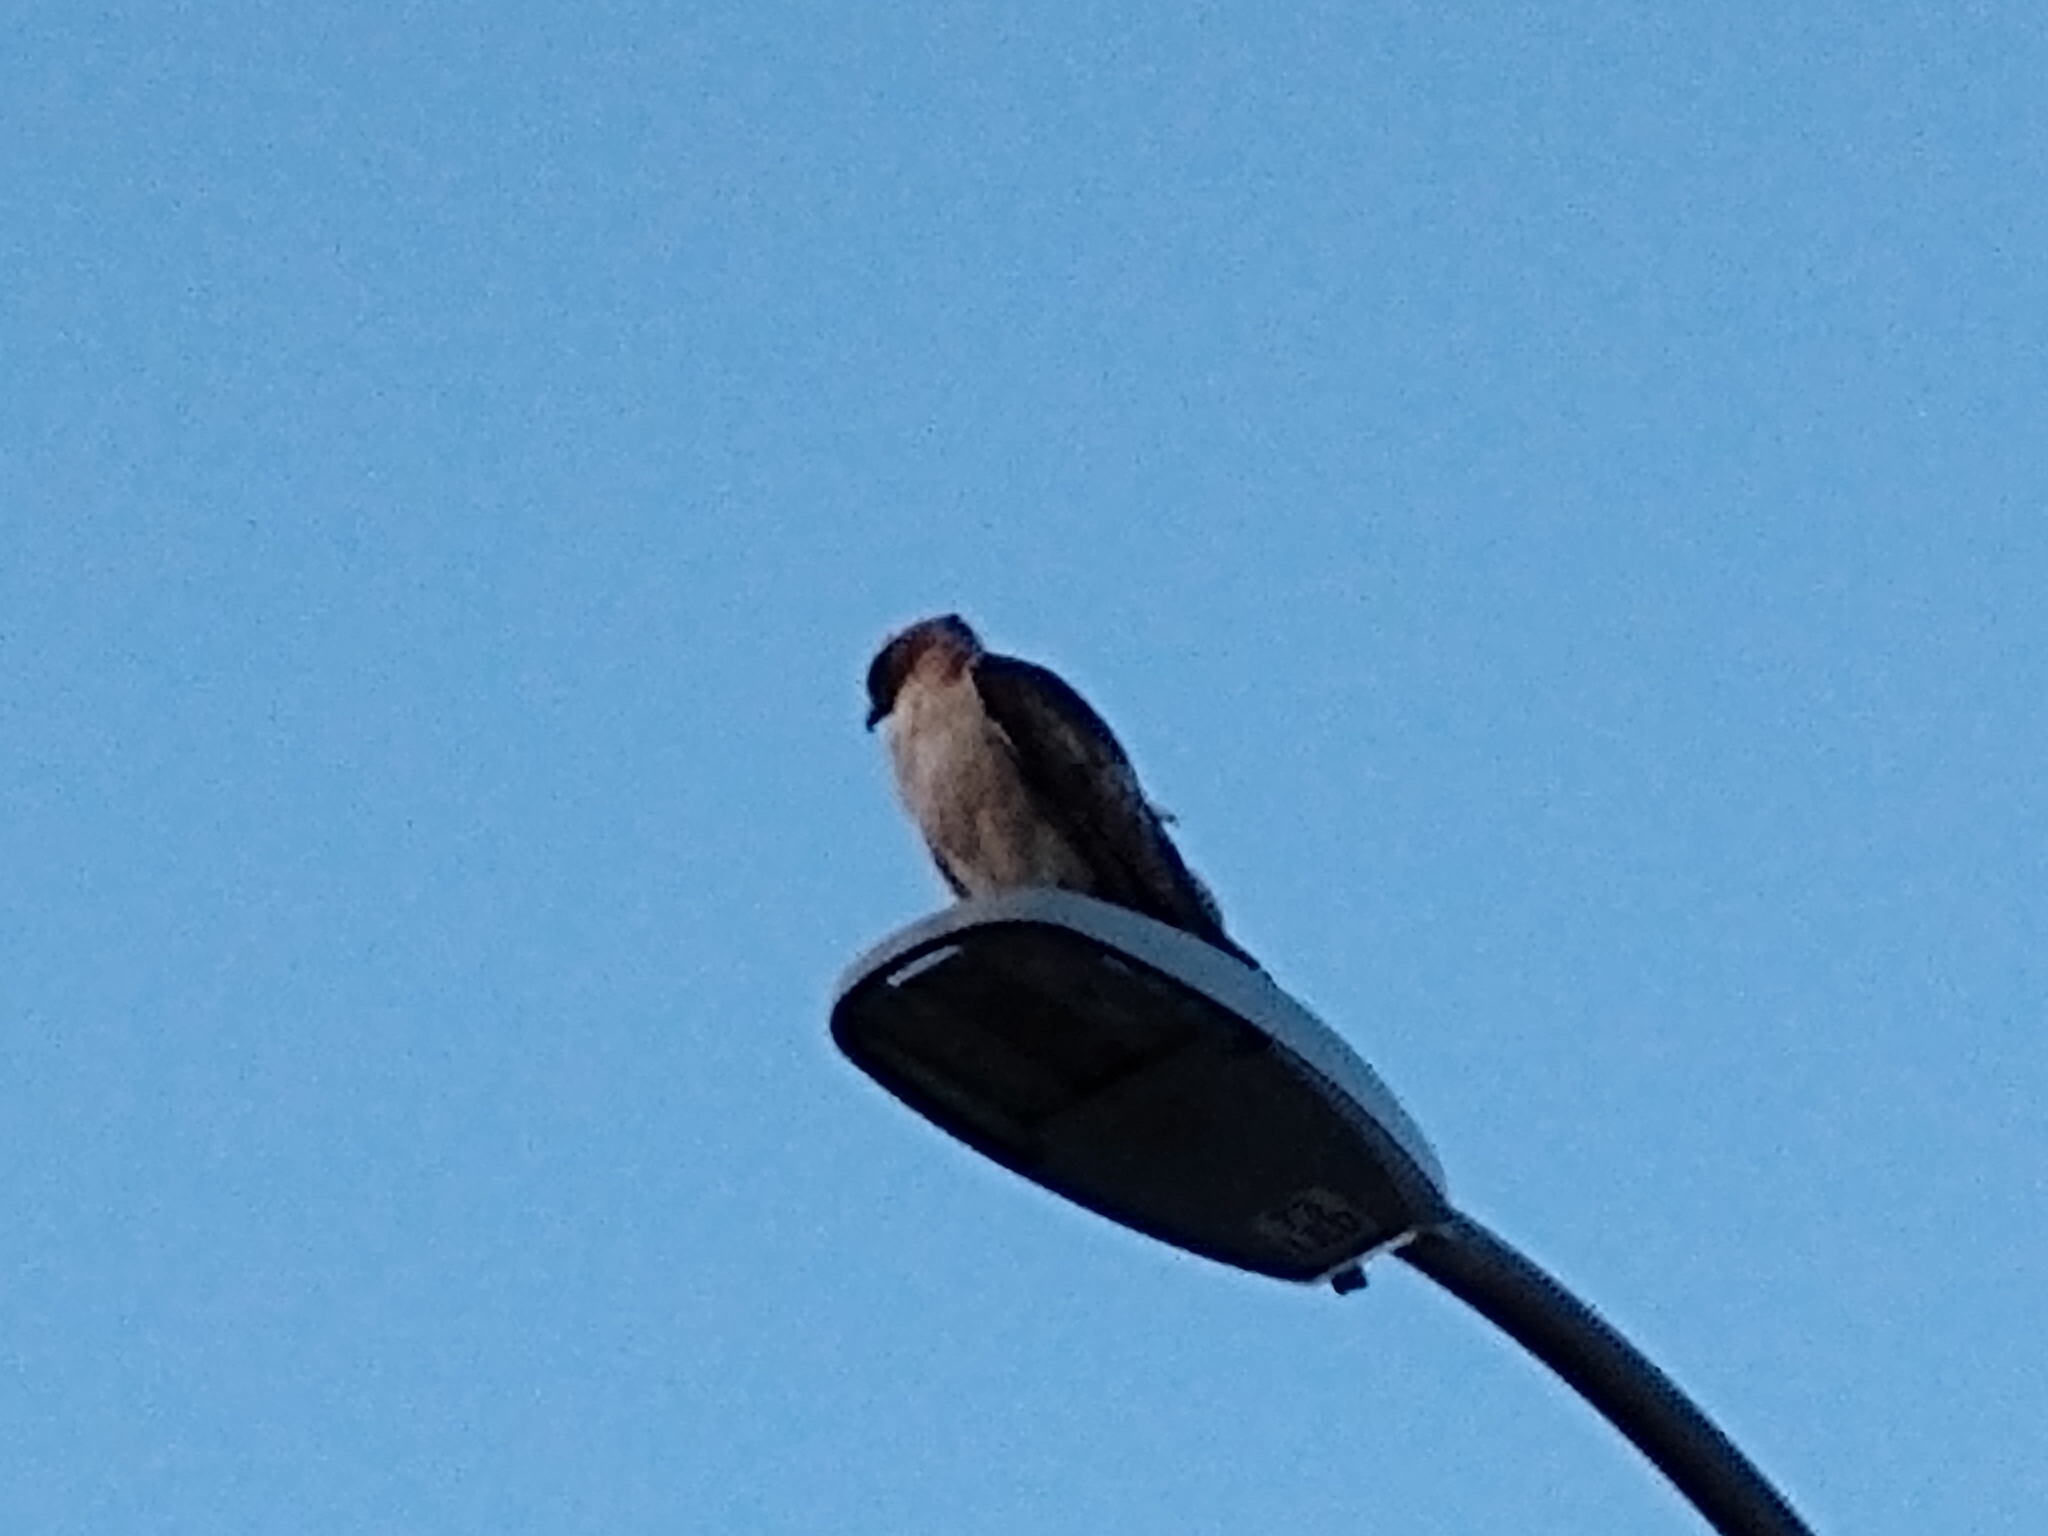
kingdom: Animalia
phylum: Chordata
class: Aves
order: Accipitriformes
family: Accipitridae
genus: Buteo
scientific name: Buteo jamaicensis
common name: Red-tailed hawk
